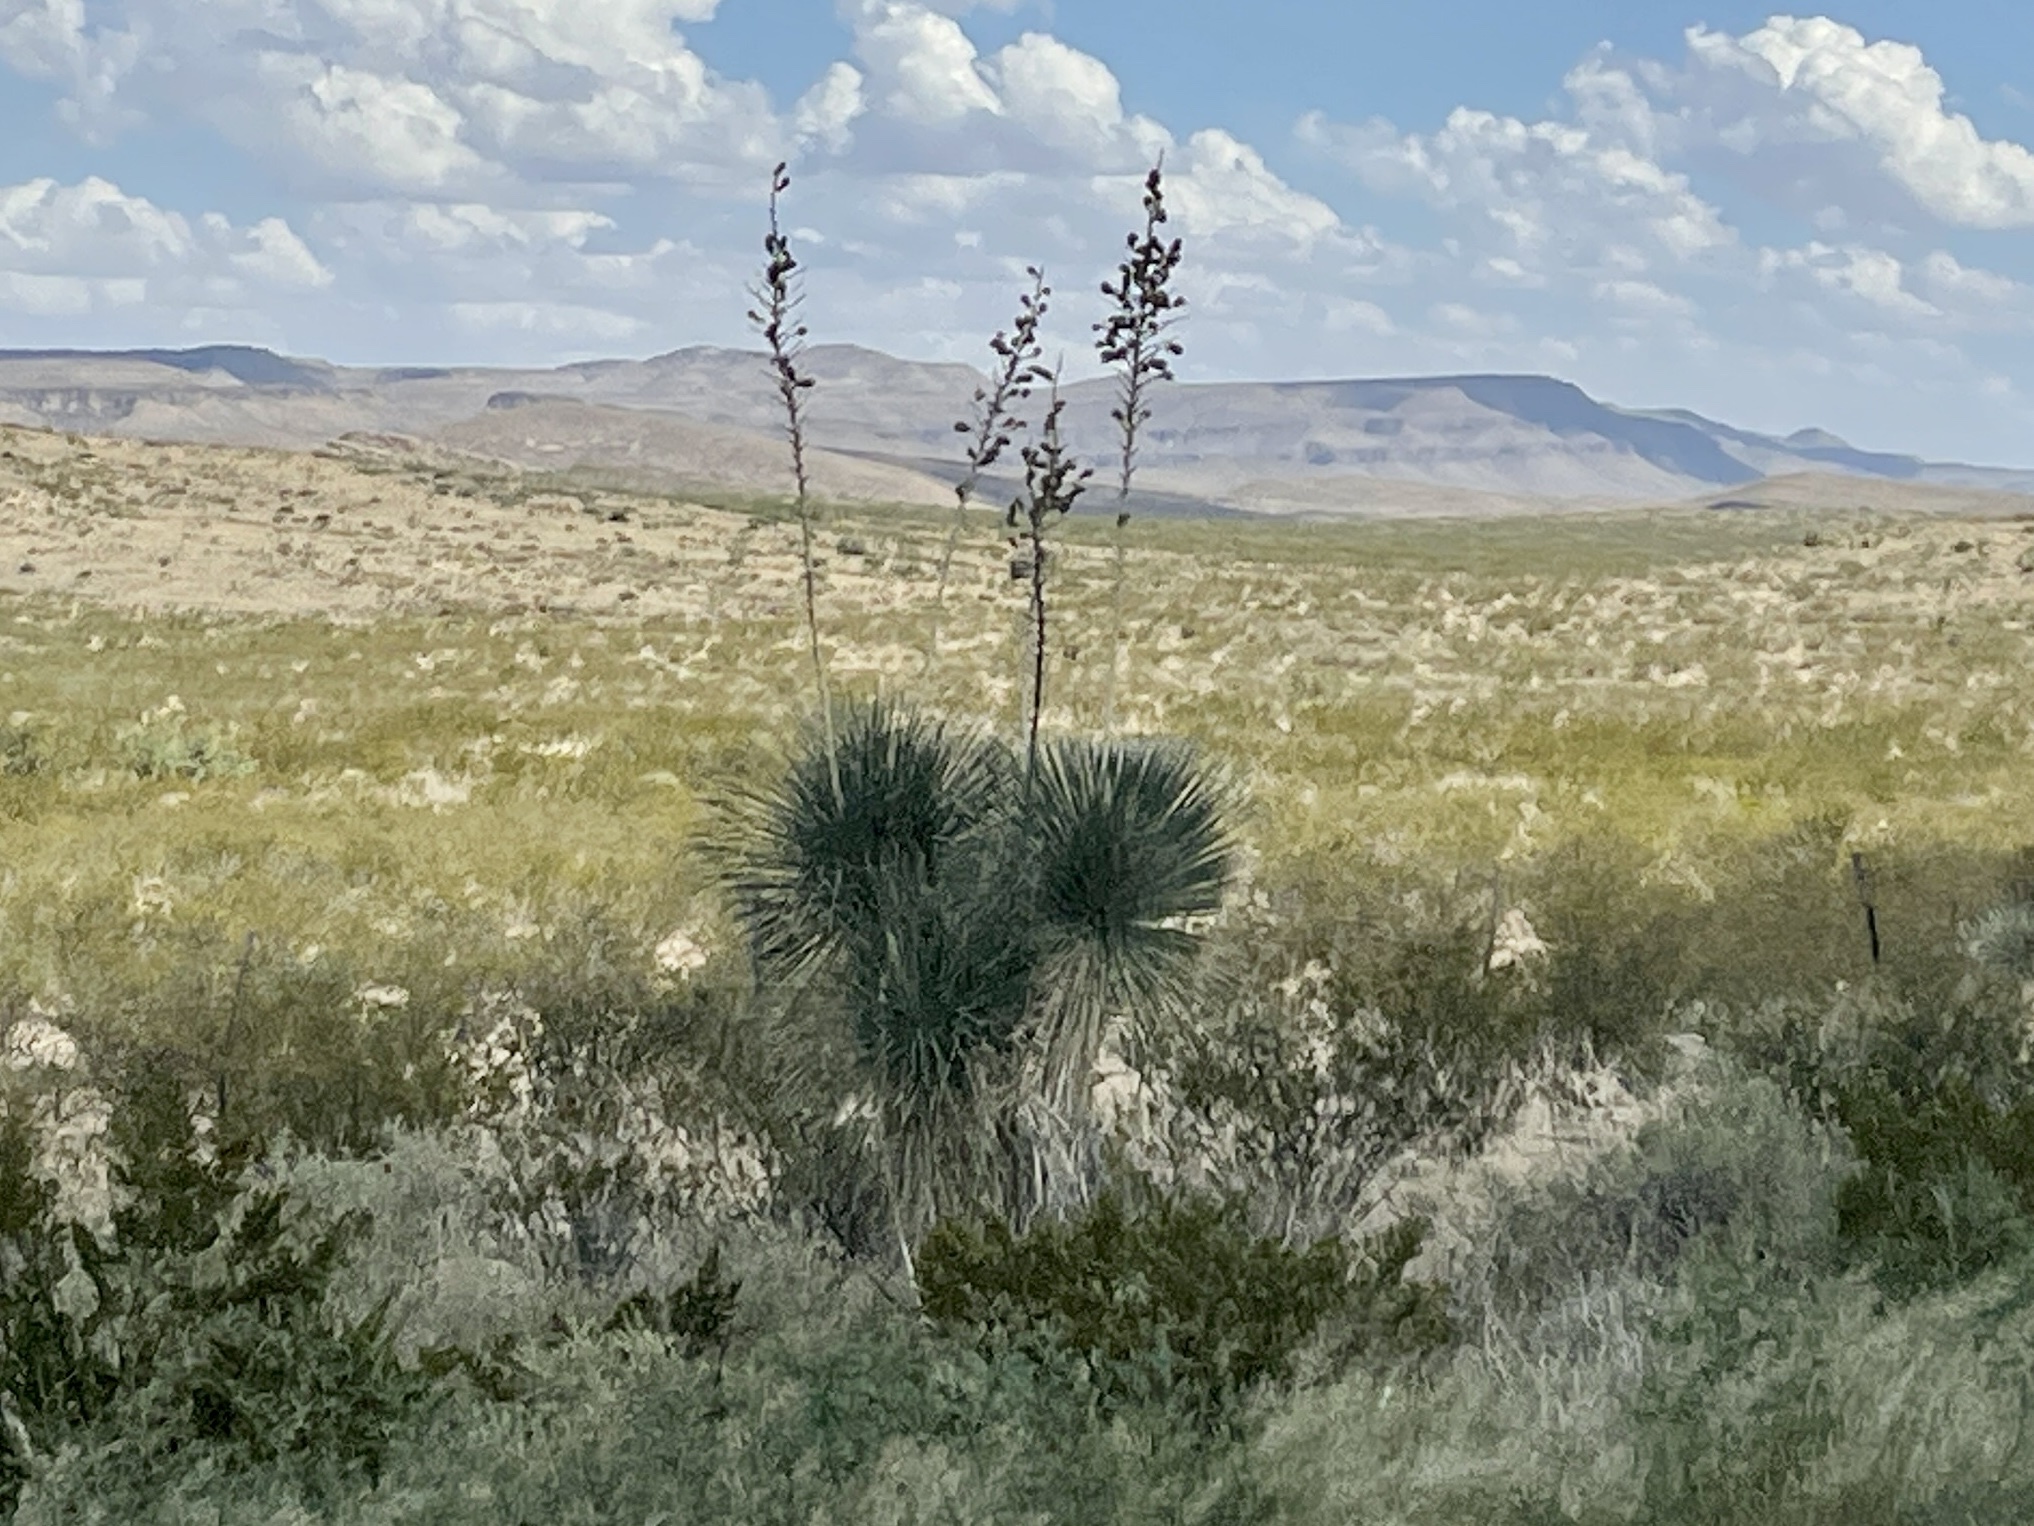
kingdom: Plantae
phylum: Tracheophyta
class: Liliopsida
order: Asparagales
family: Asparagaceae
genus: Yucca
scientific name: Yucca elata
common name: Palmella
